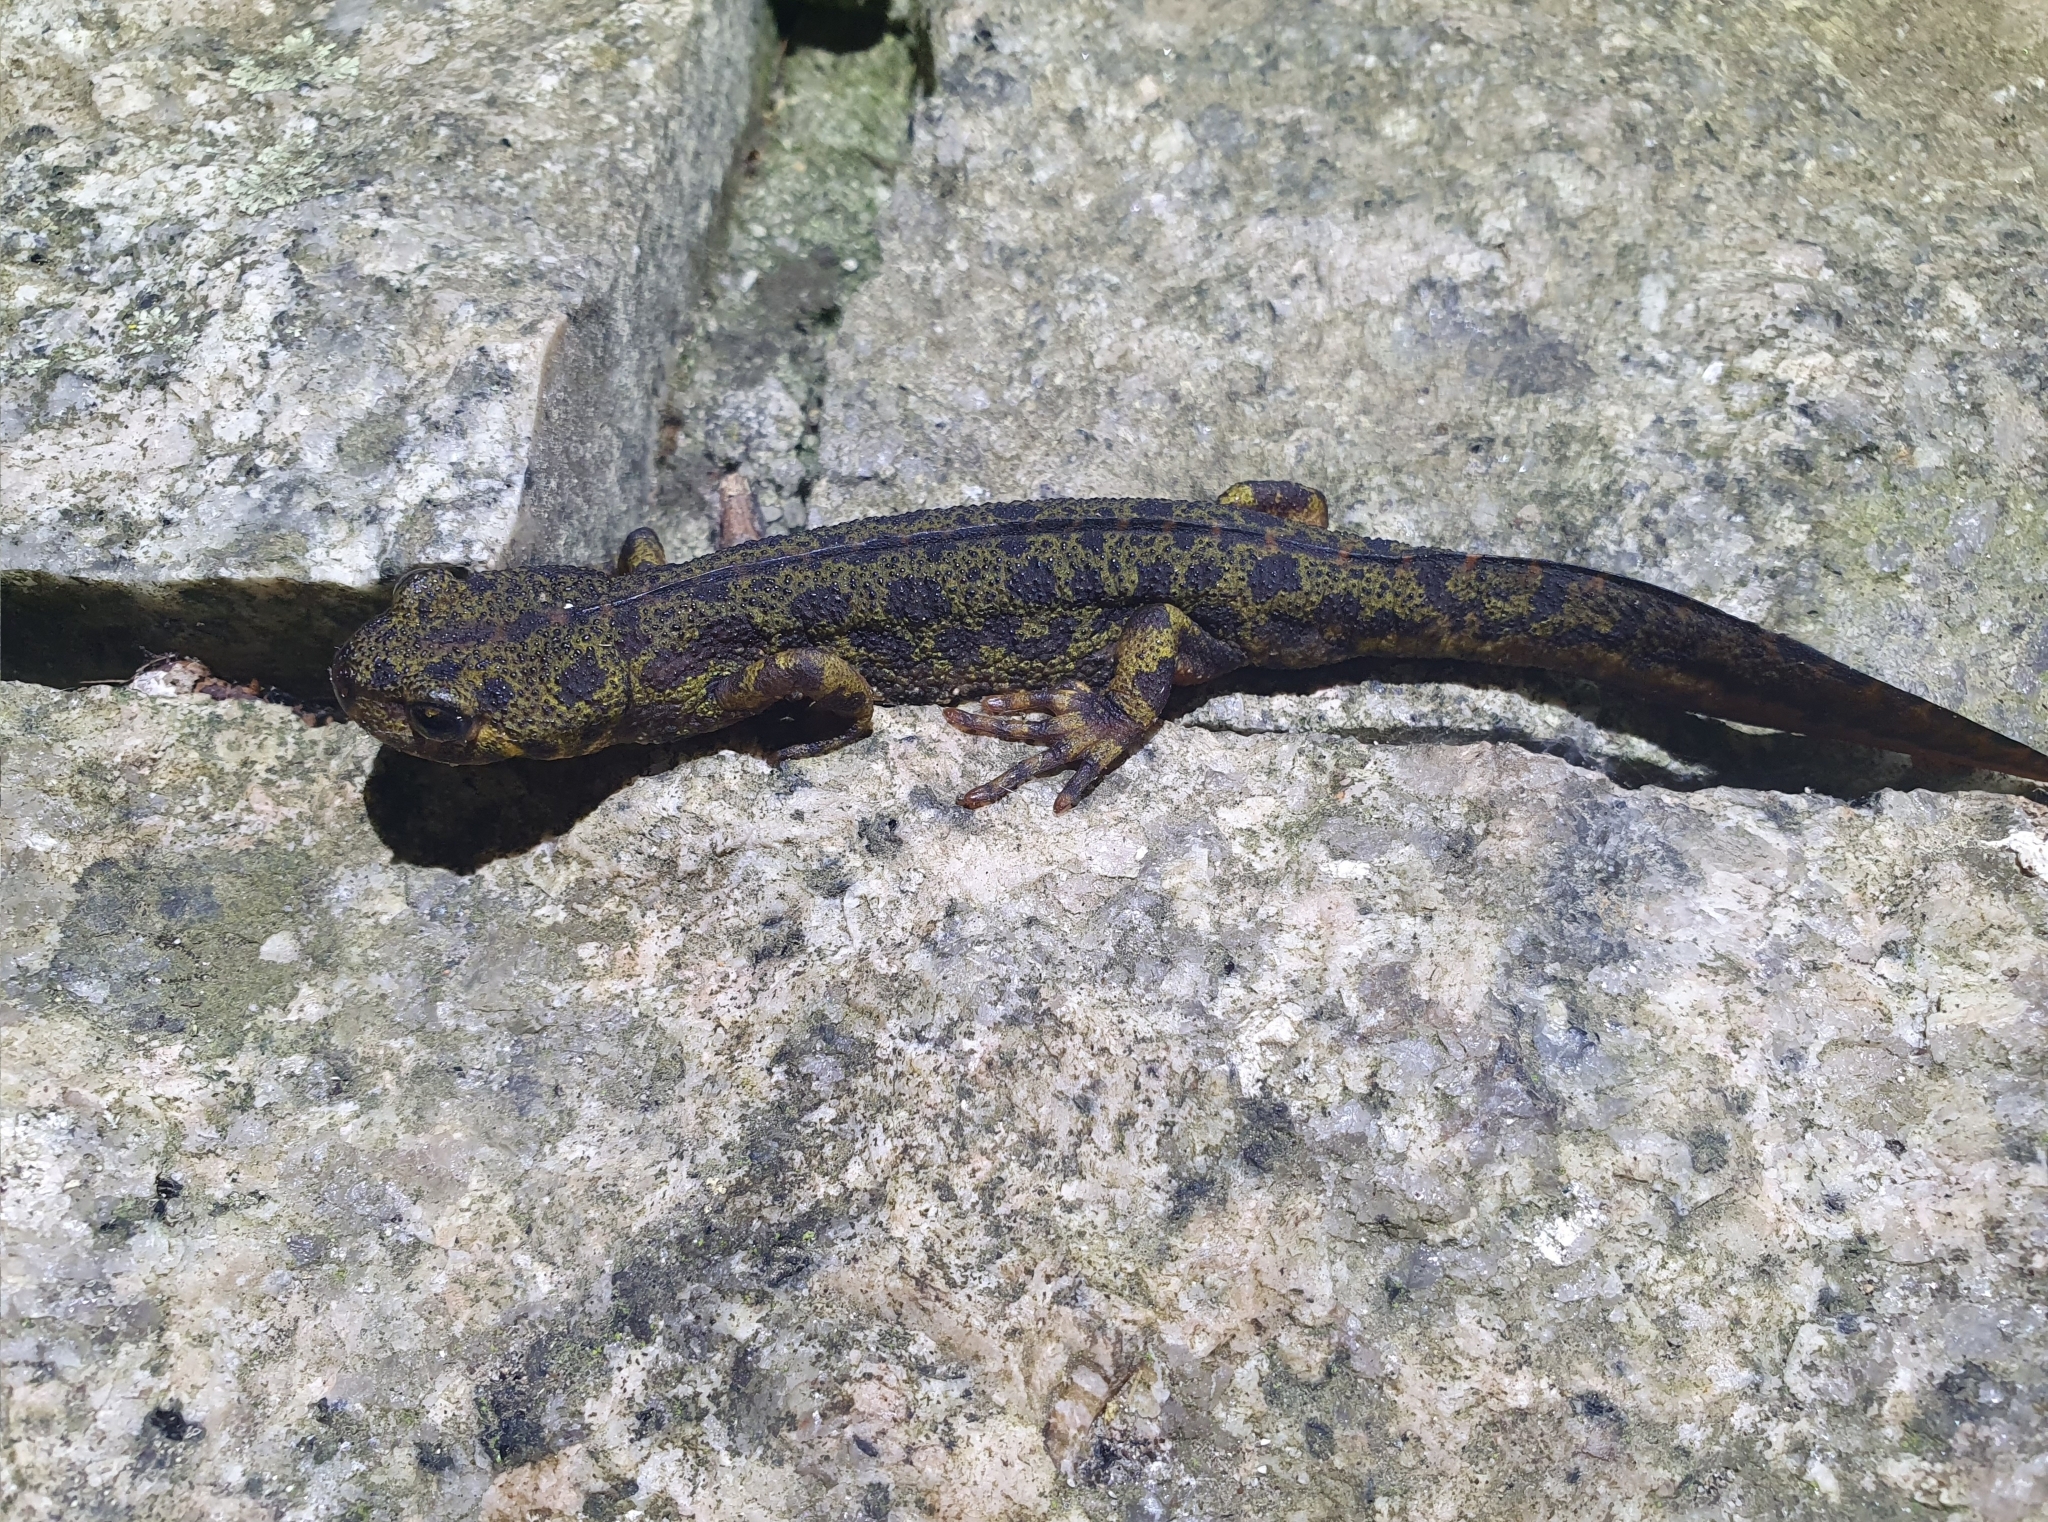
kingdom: Animalia
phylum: Chordata
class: Amphibia
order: Caudata
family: Salamandridae
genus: Triturus
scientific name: Triturus marmoratus
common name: Marbled newt
